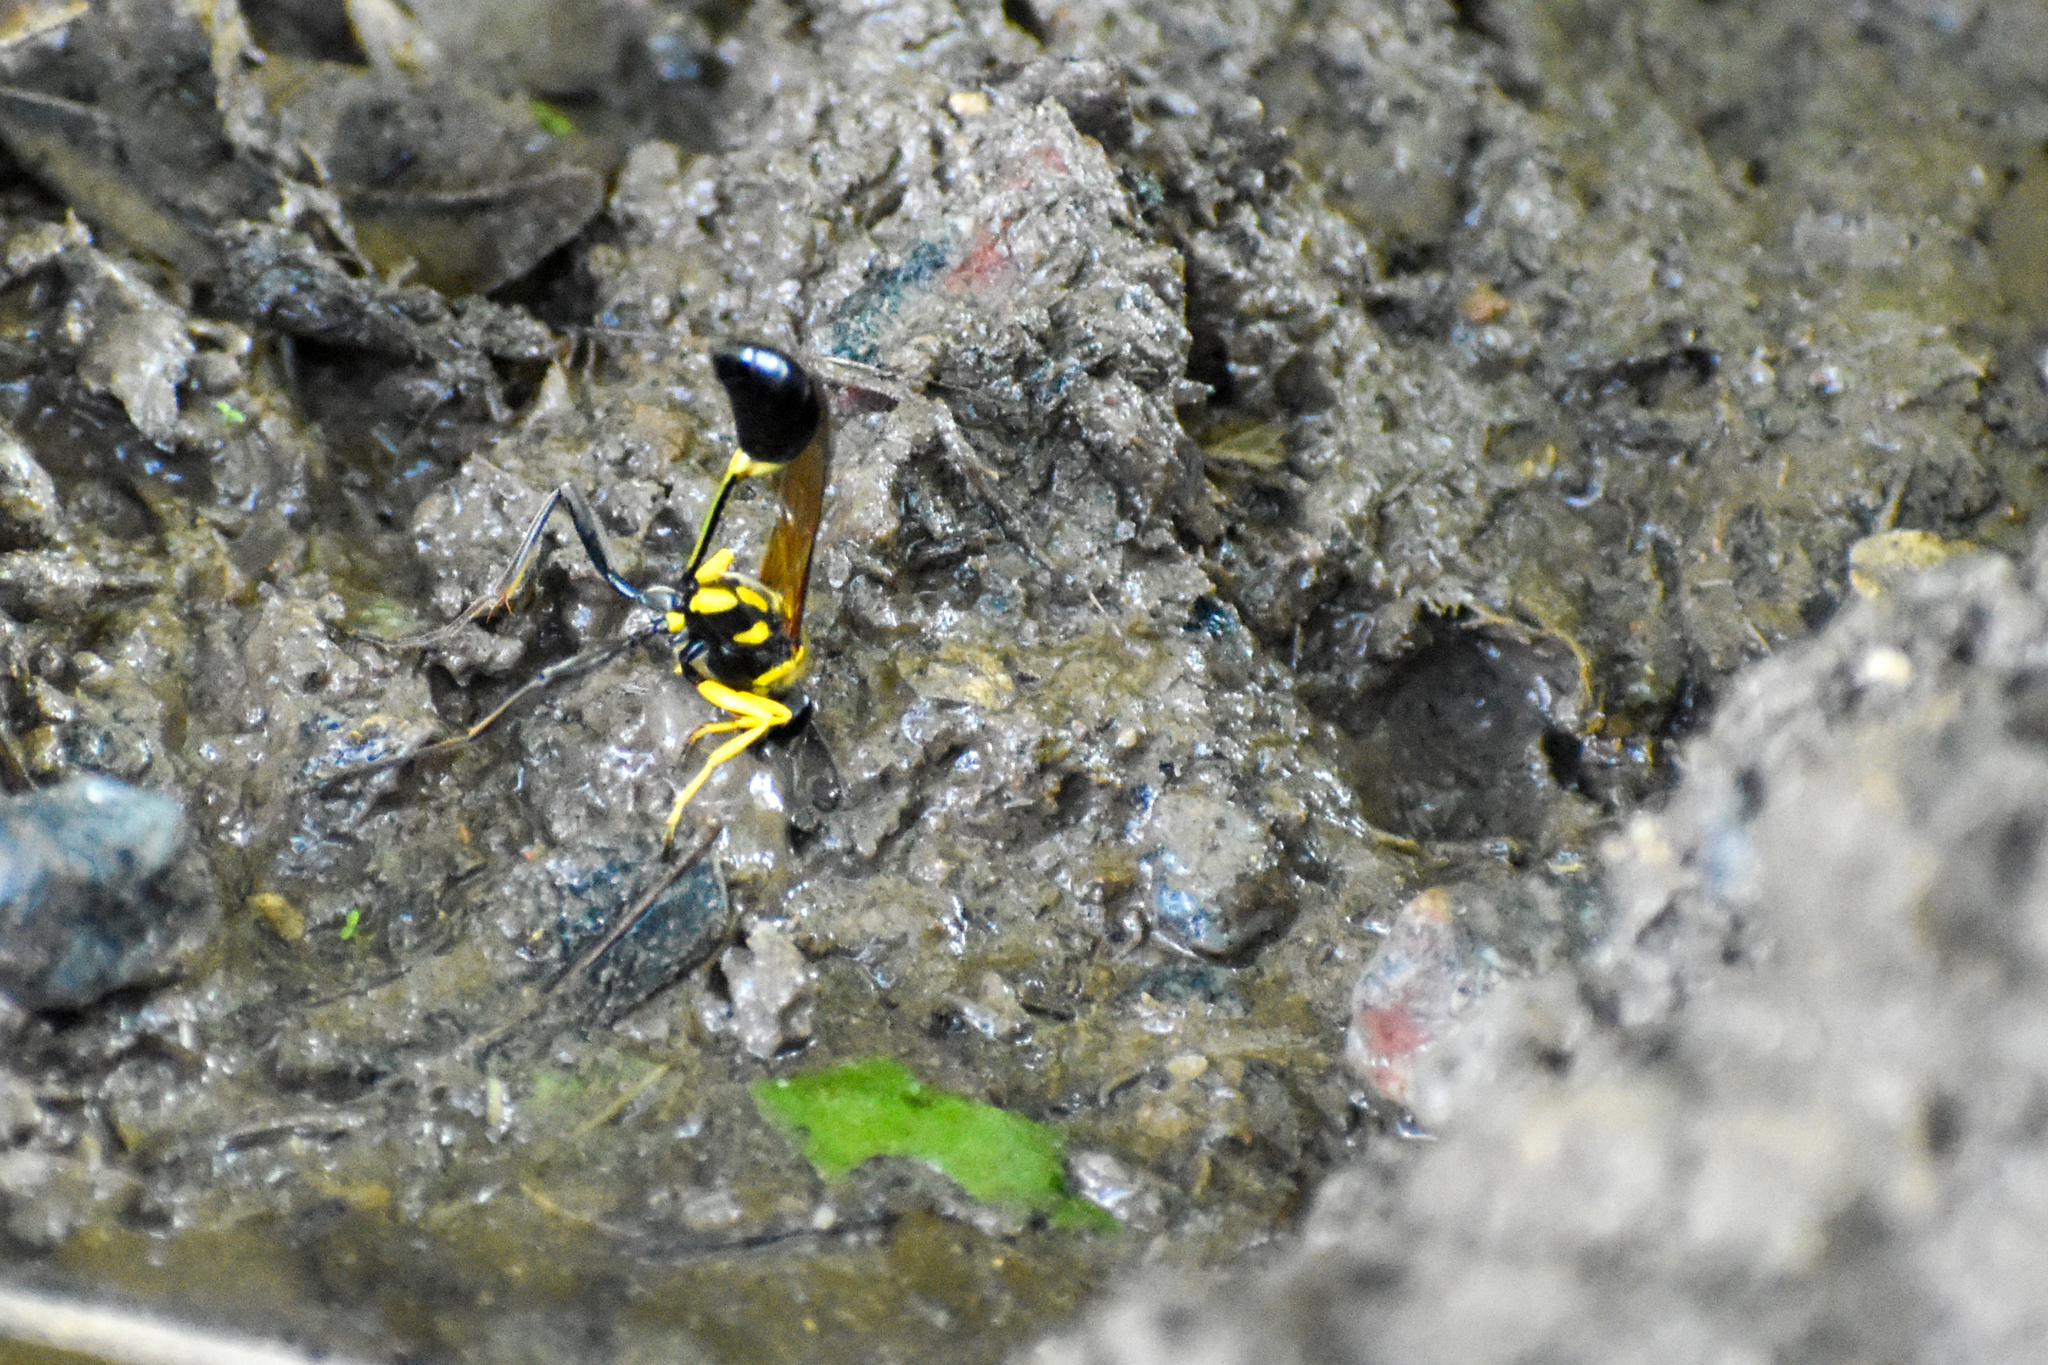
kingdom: Animalia
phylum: Arthropoda
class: Insecta
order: Hymenoptera
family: Sphecidae
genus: Sceliphron
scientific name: Sceliphron fistularium
